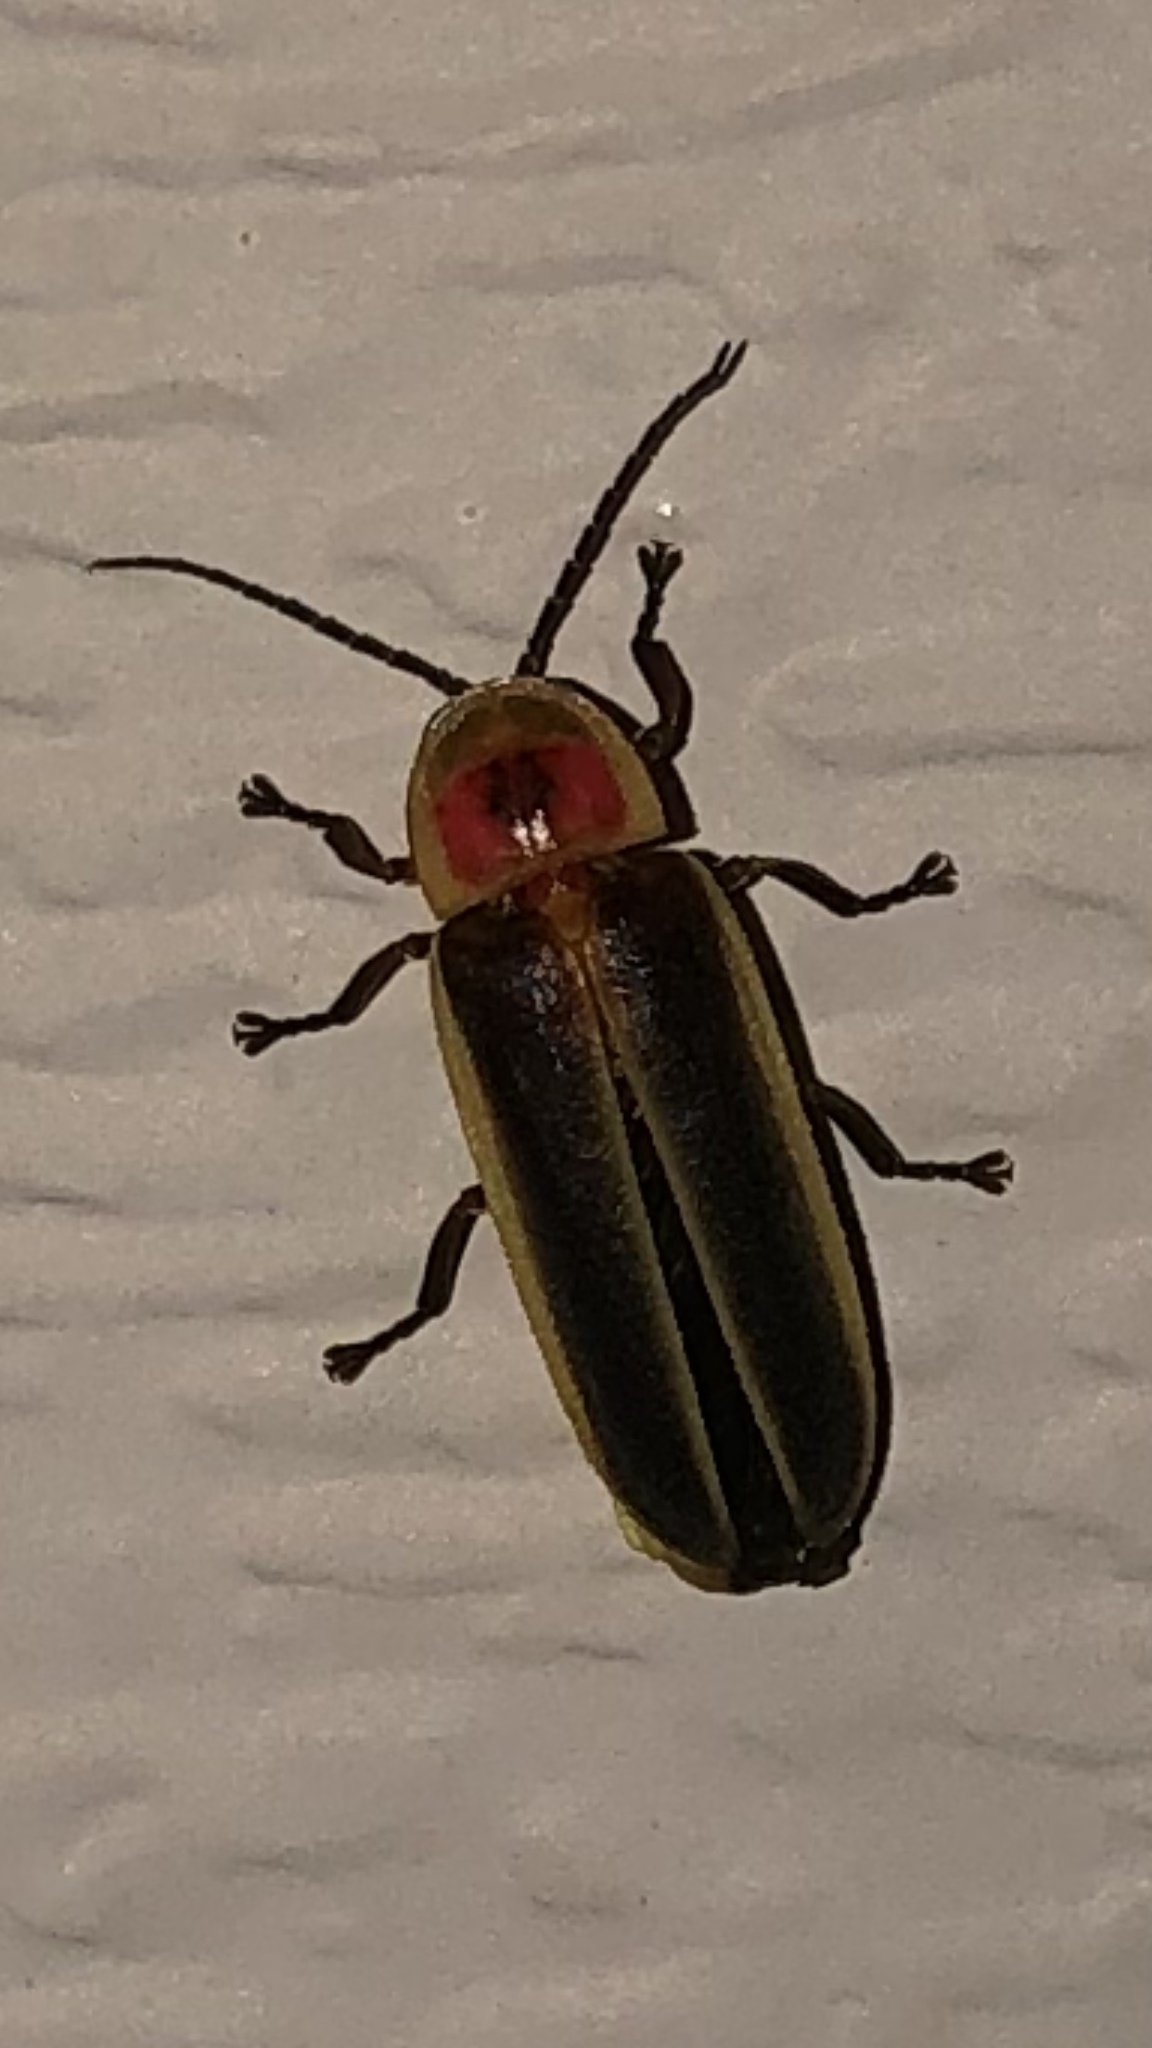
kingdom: Animalia
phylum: Arthropoda
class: Insecta
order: Coleoptera
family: Lampyridae
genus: Photinus
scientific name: Photinus pyralis
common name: Big dipper firefly
